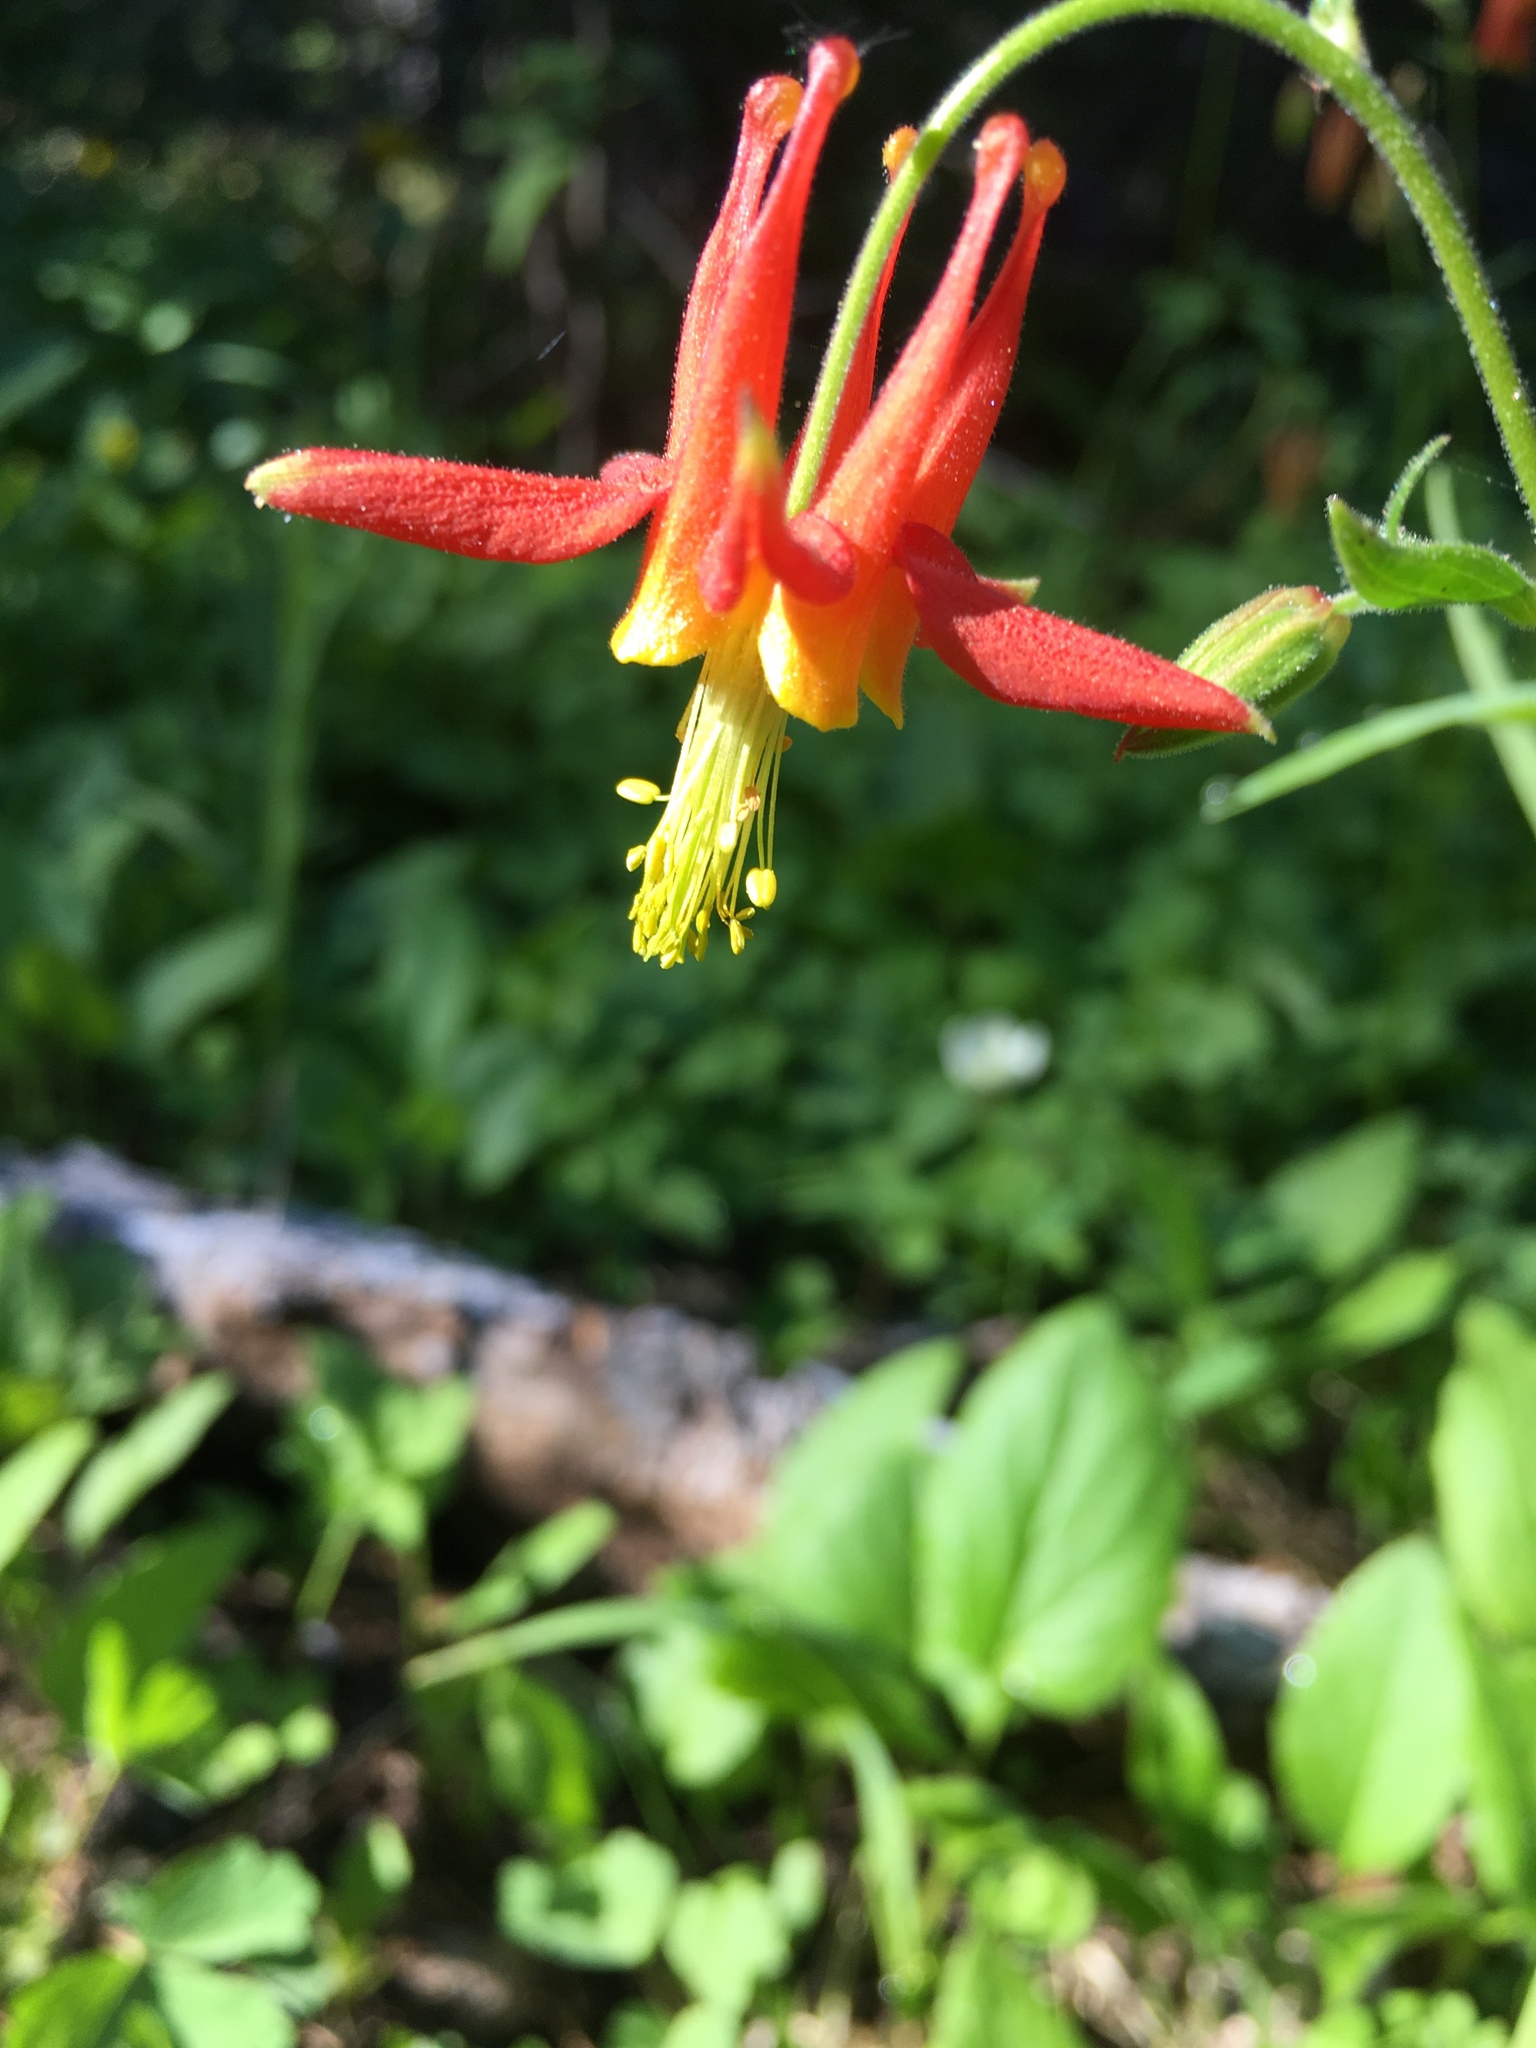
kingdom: Plantae
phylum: Tracheophyta
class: Magnoliopsida
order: Ranunculales
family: Ranunculaceae
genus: Aquilegia
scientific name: Aquilegia formosa
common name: Sitka columbine
